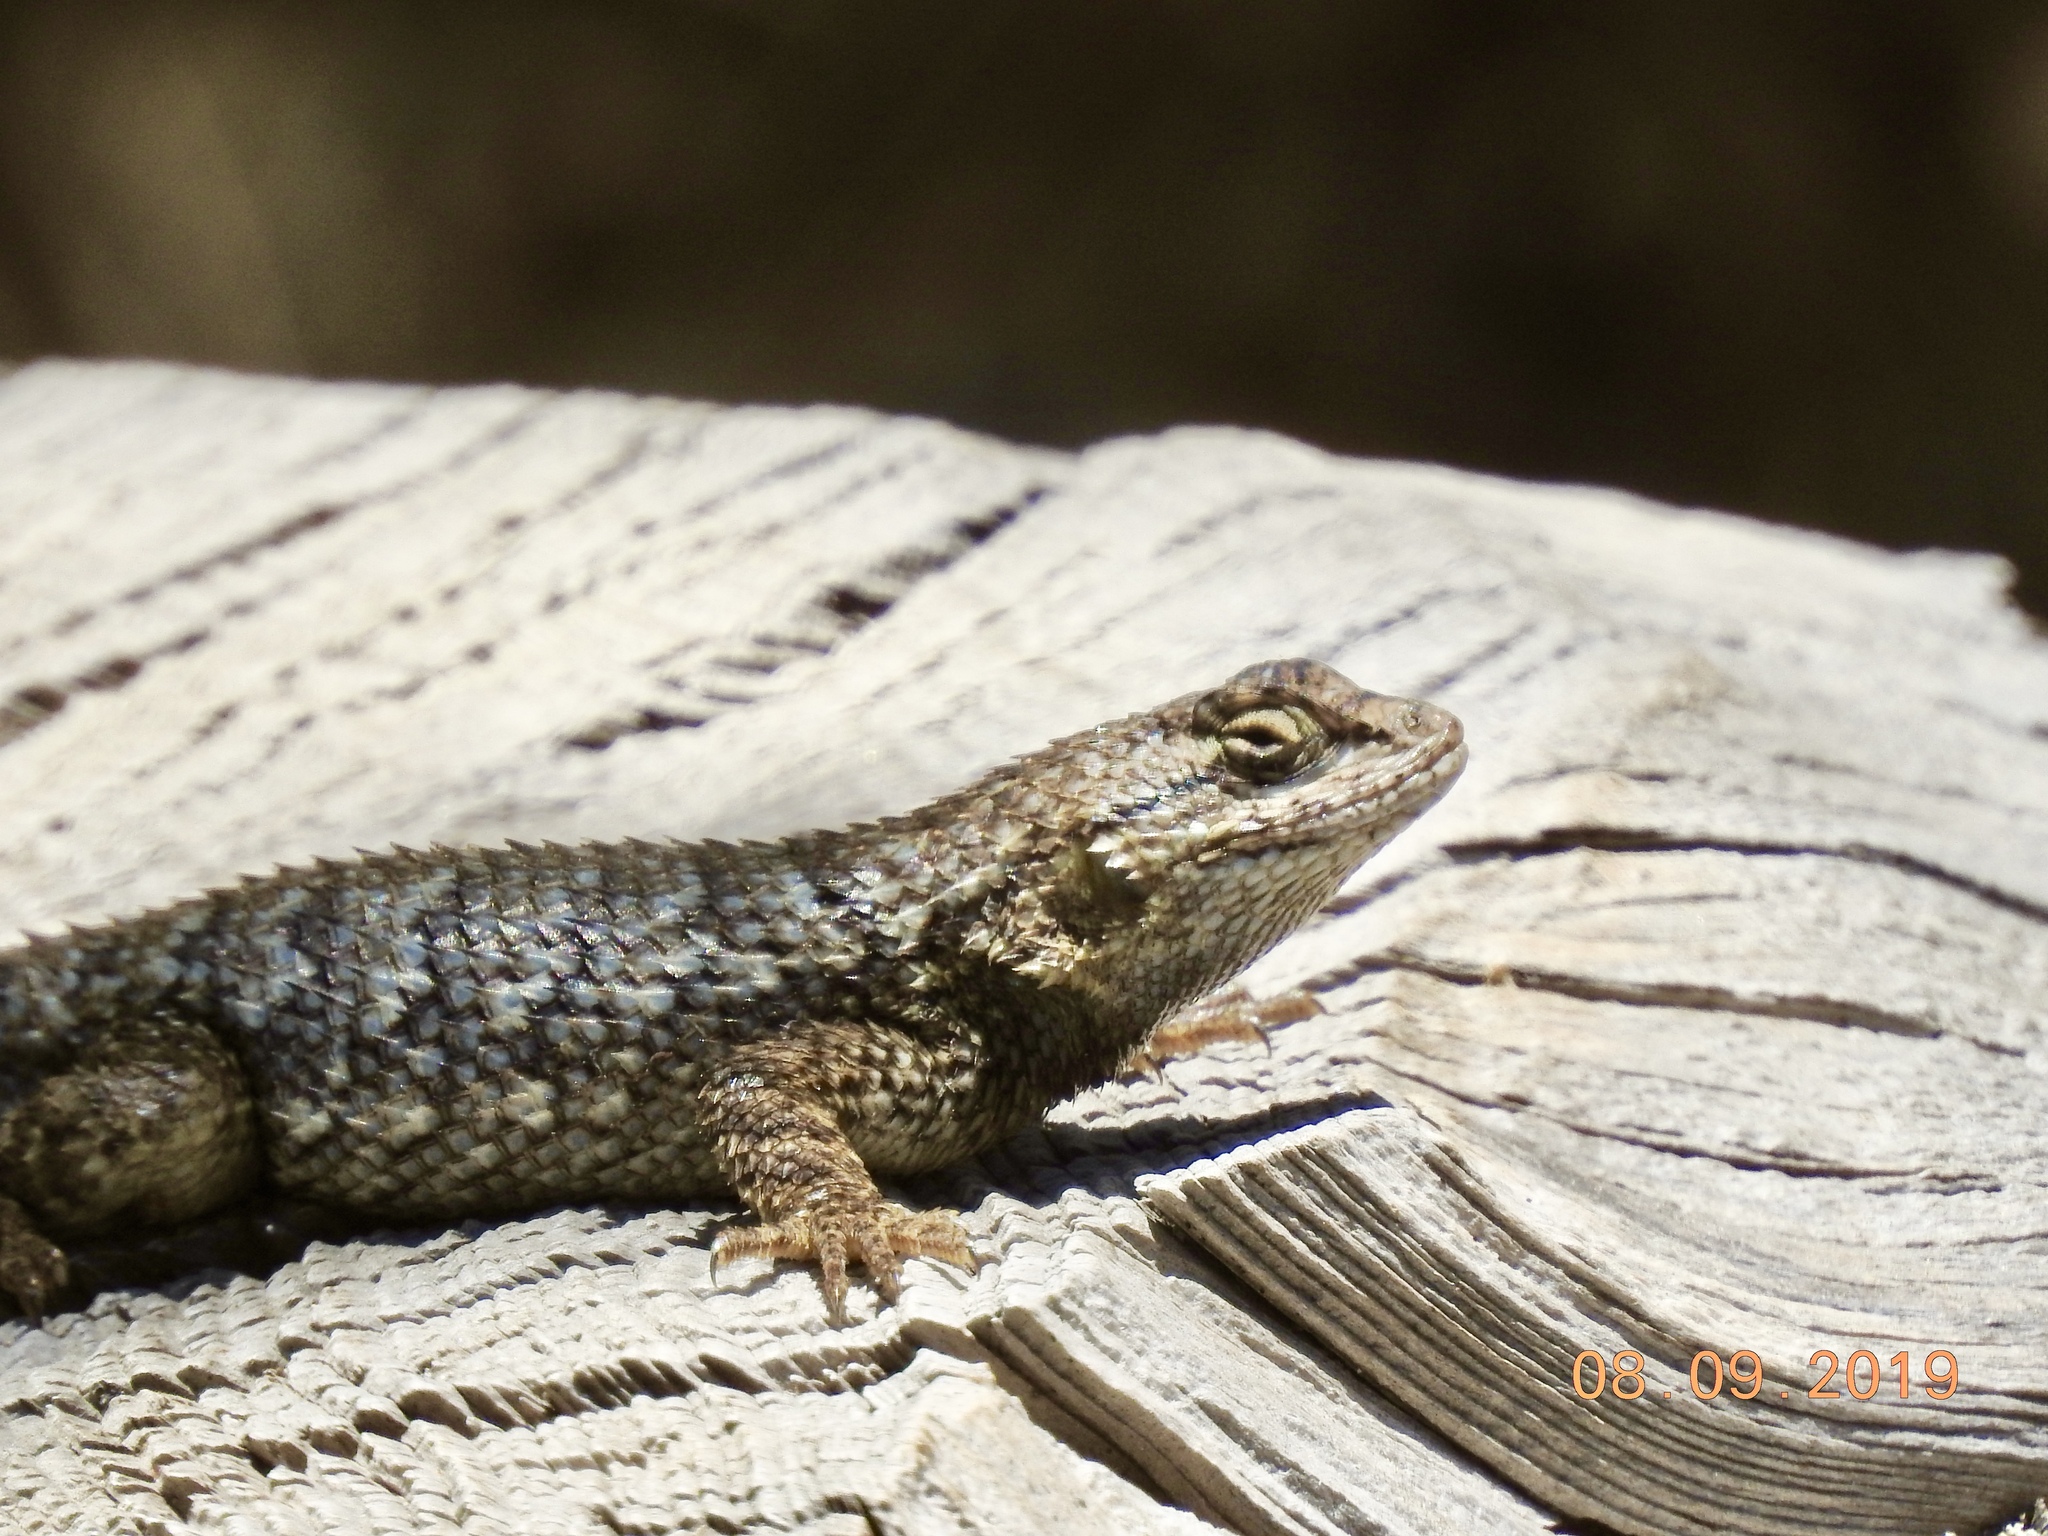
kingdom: Animalia
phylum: Chordata
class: Squamata
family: Phrynosomatidae
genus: Sceloporus
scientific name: Sceloporus occidentalis
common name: Western fence lizard
